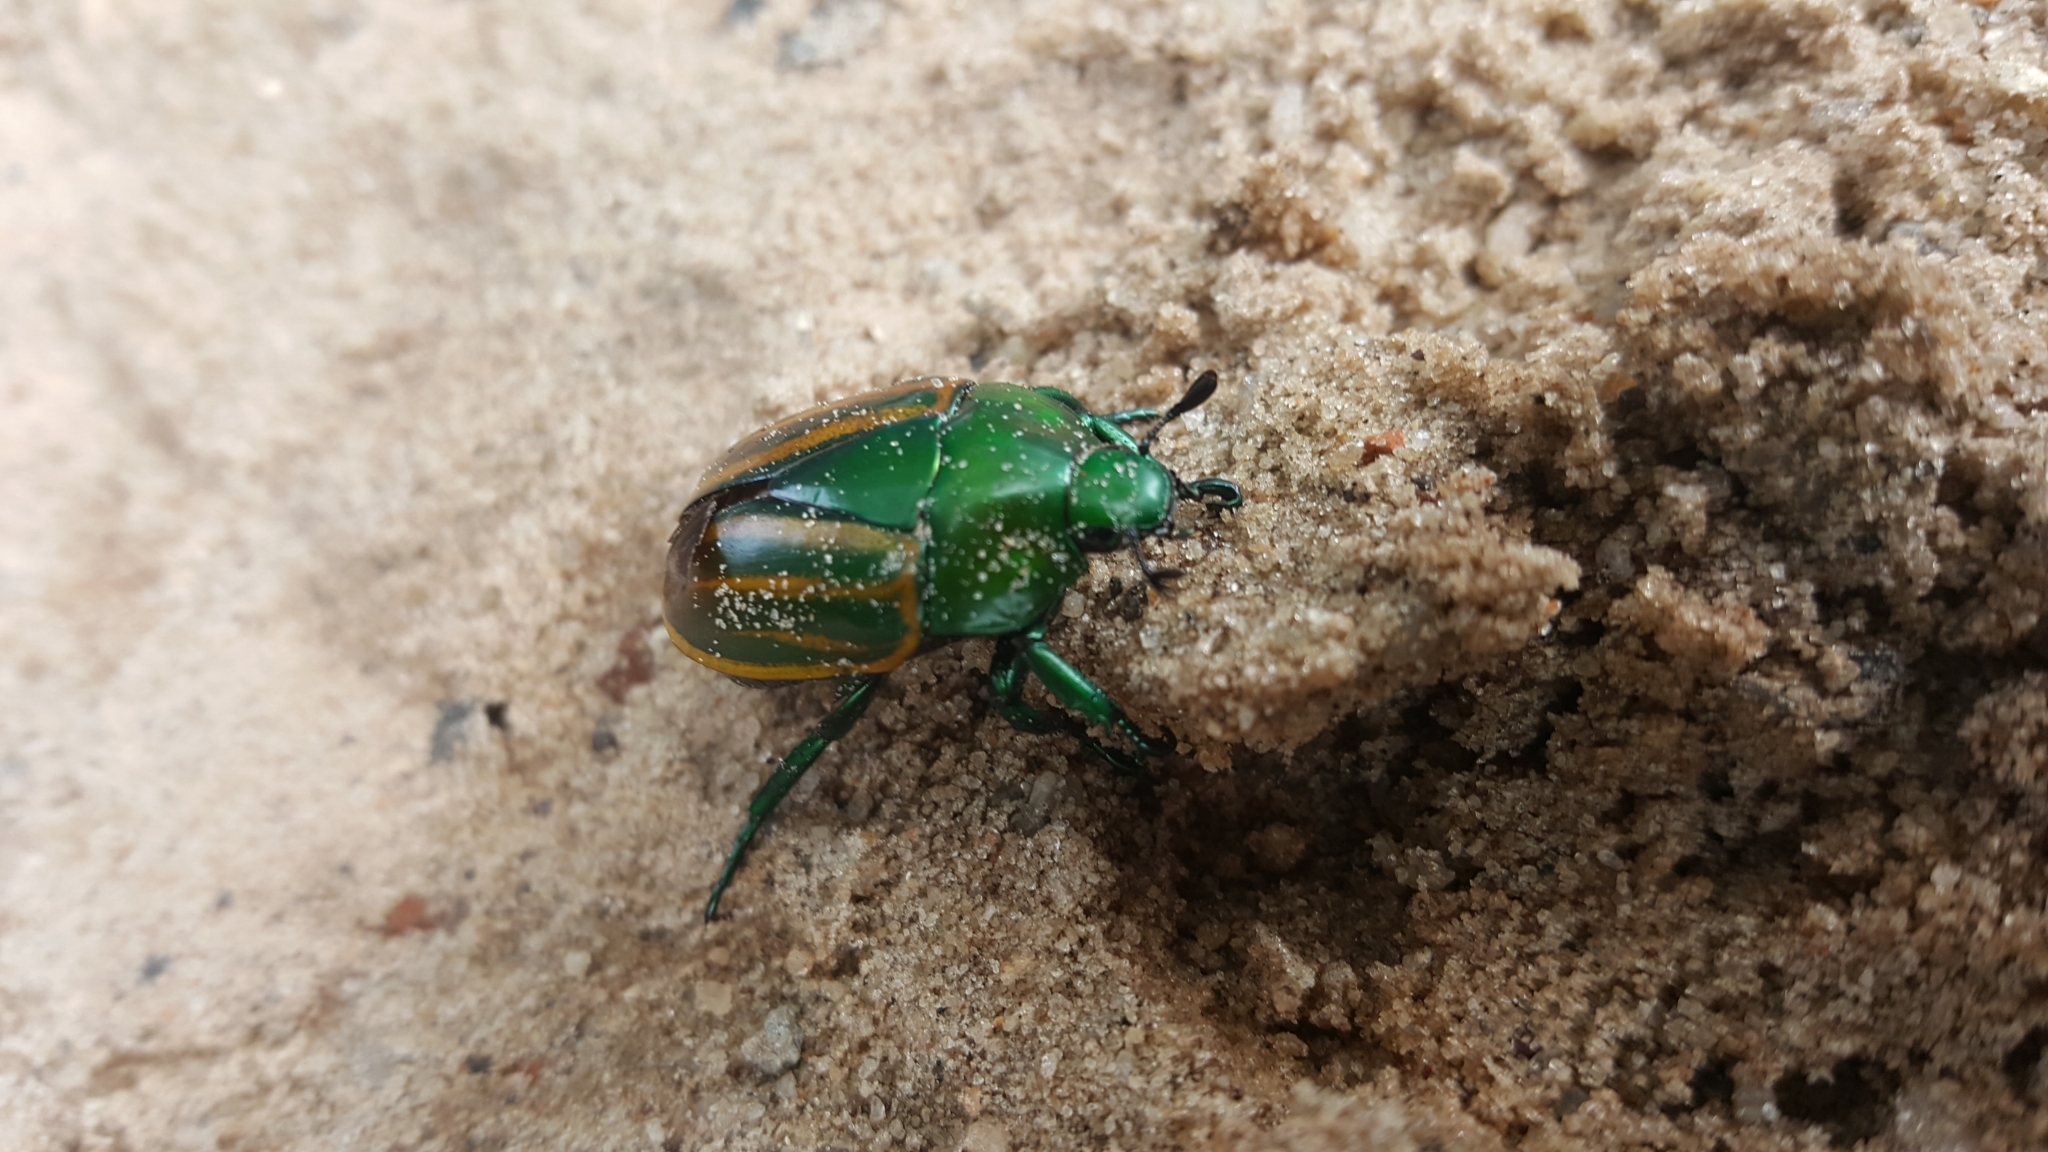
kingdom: Animalia
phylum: Arthropoda
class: Insecta
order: Coleoptera
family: Scarabaeidae
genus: Macraspis
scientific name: Macraspis festiva
